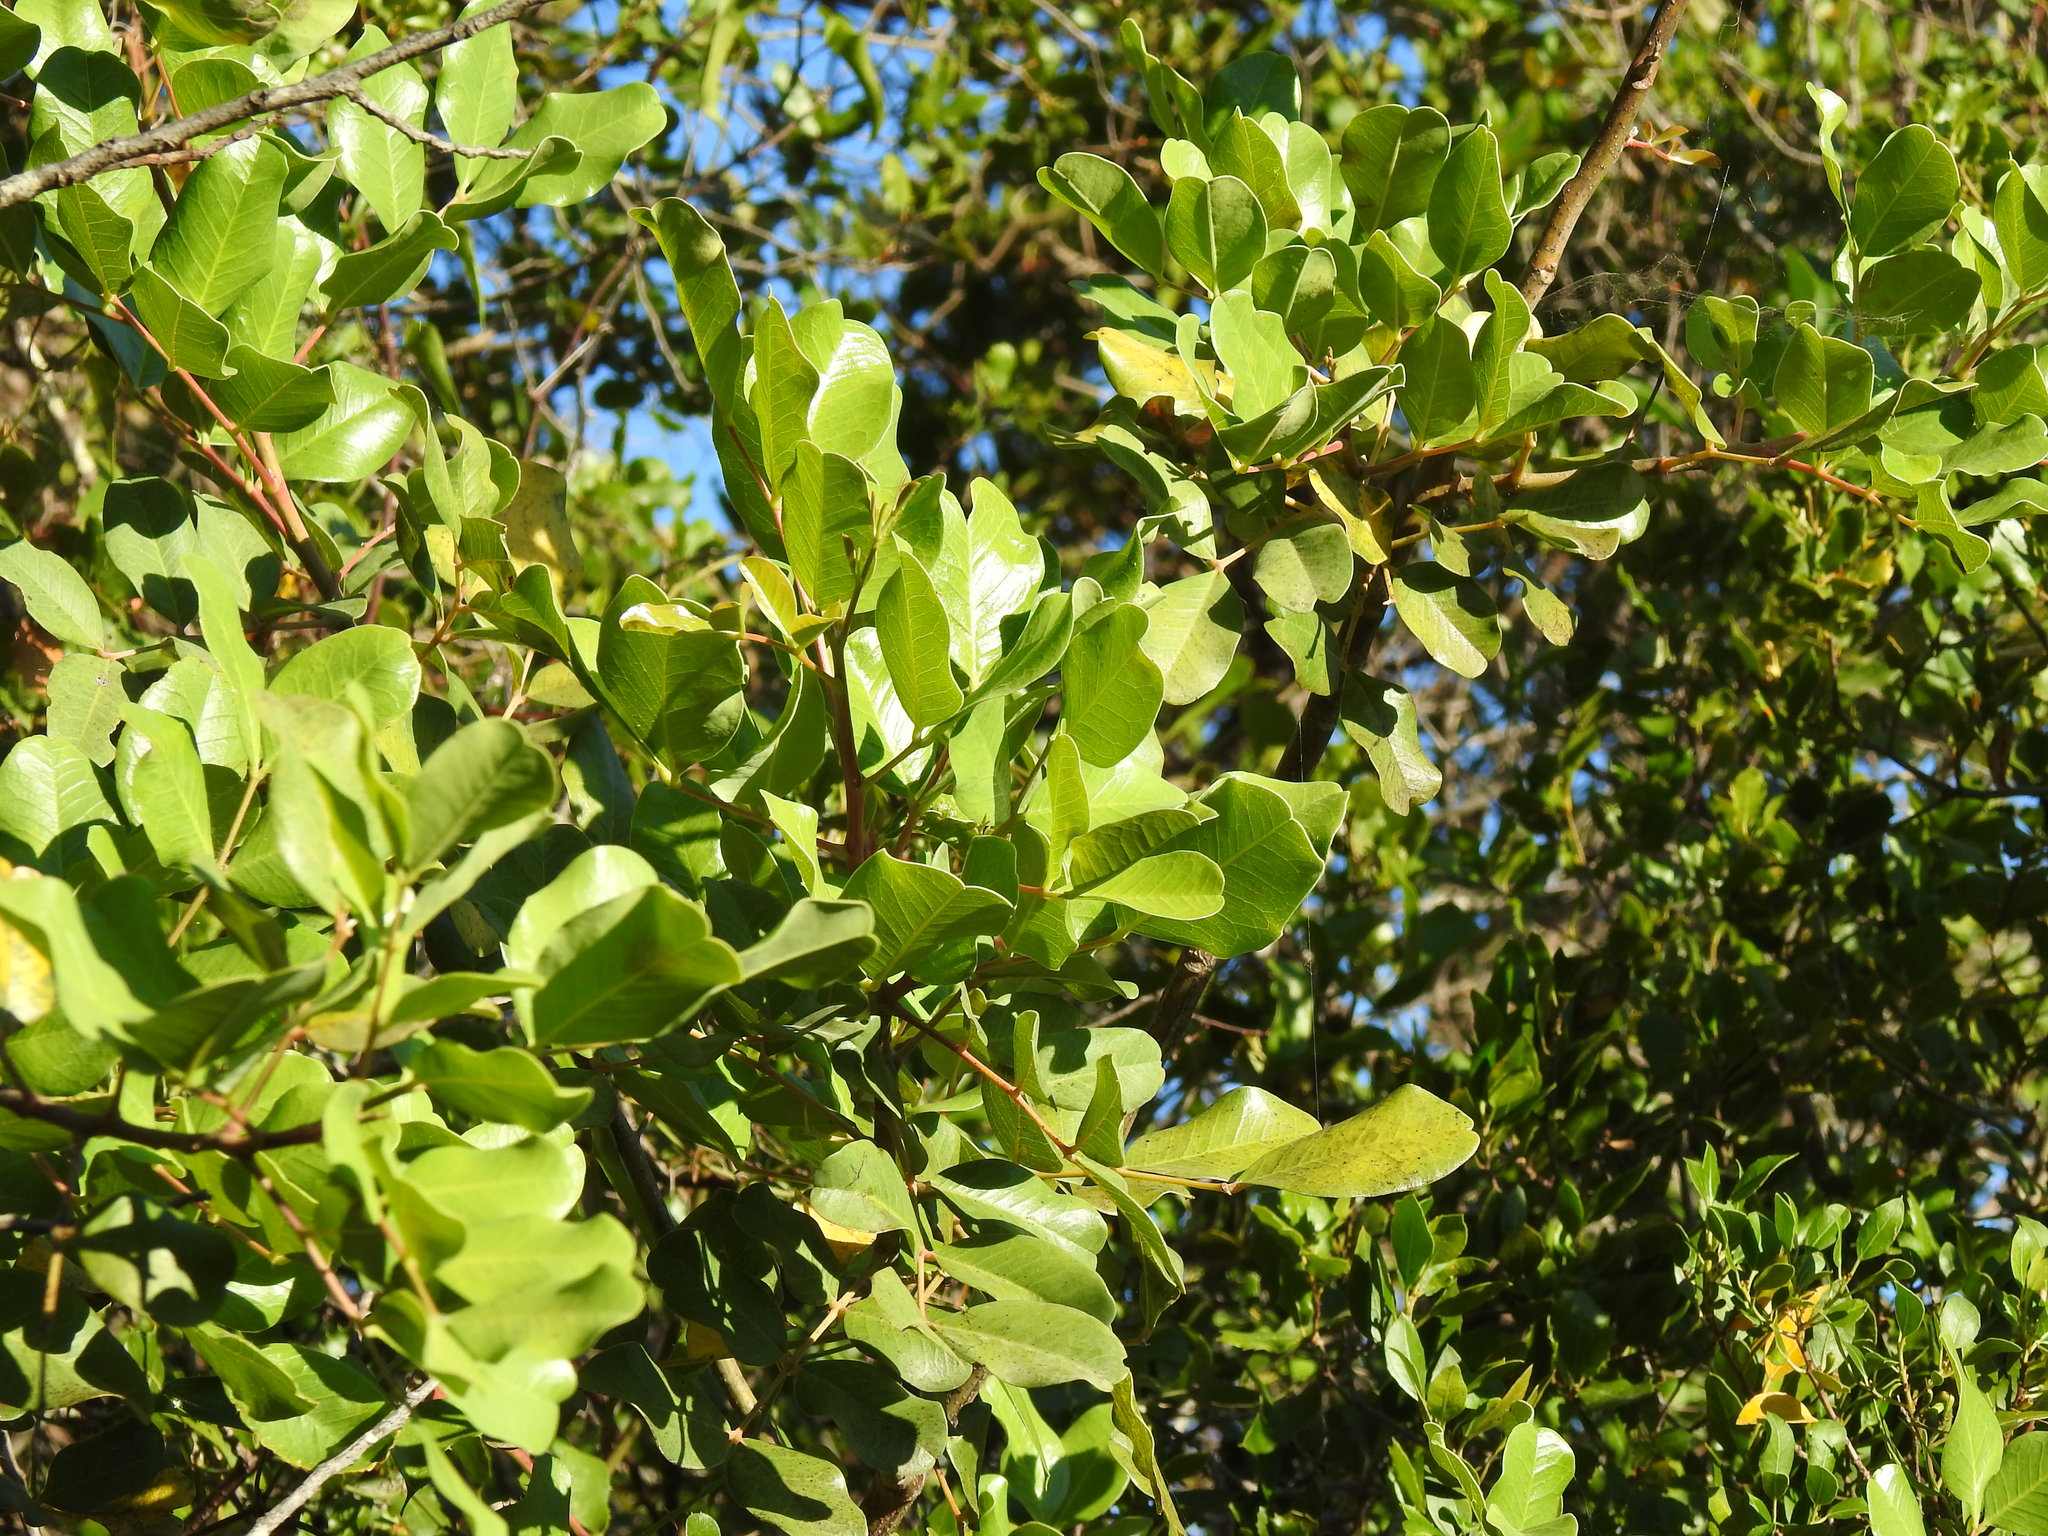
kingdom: Plantae
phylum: Tracheophyta
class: Magnoliopsida
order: Fabales
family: Fabaceae
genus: Ceratonia
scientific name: Ceratonia siliqua
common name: Carob
